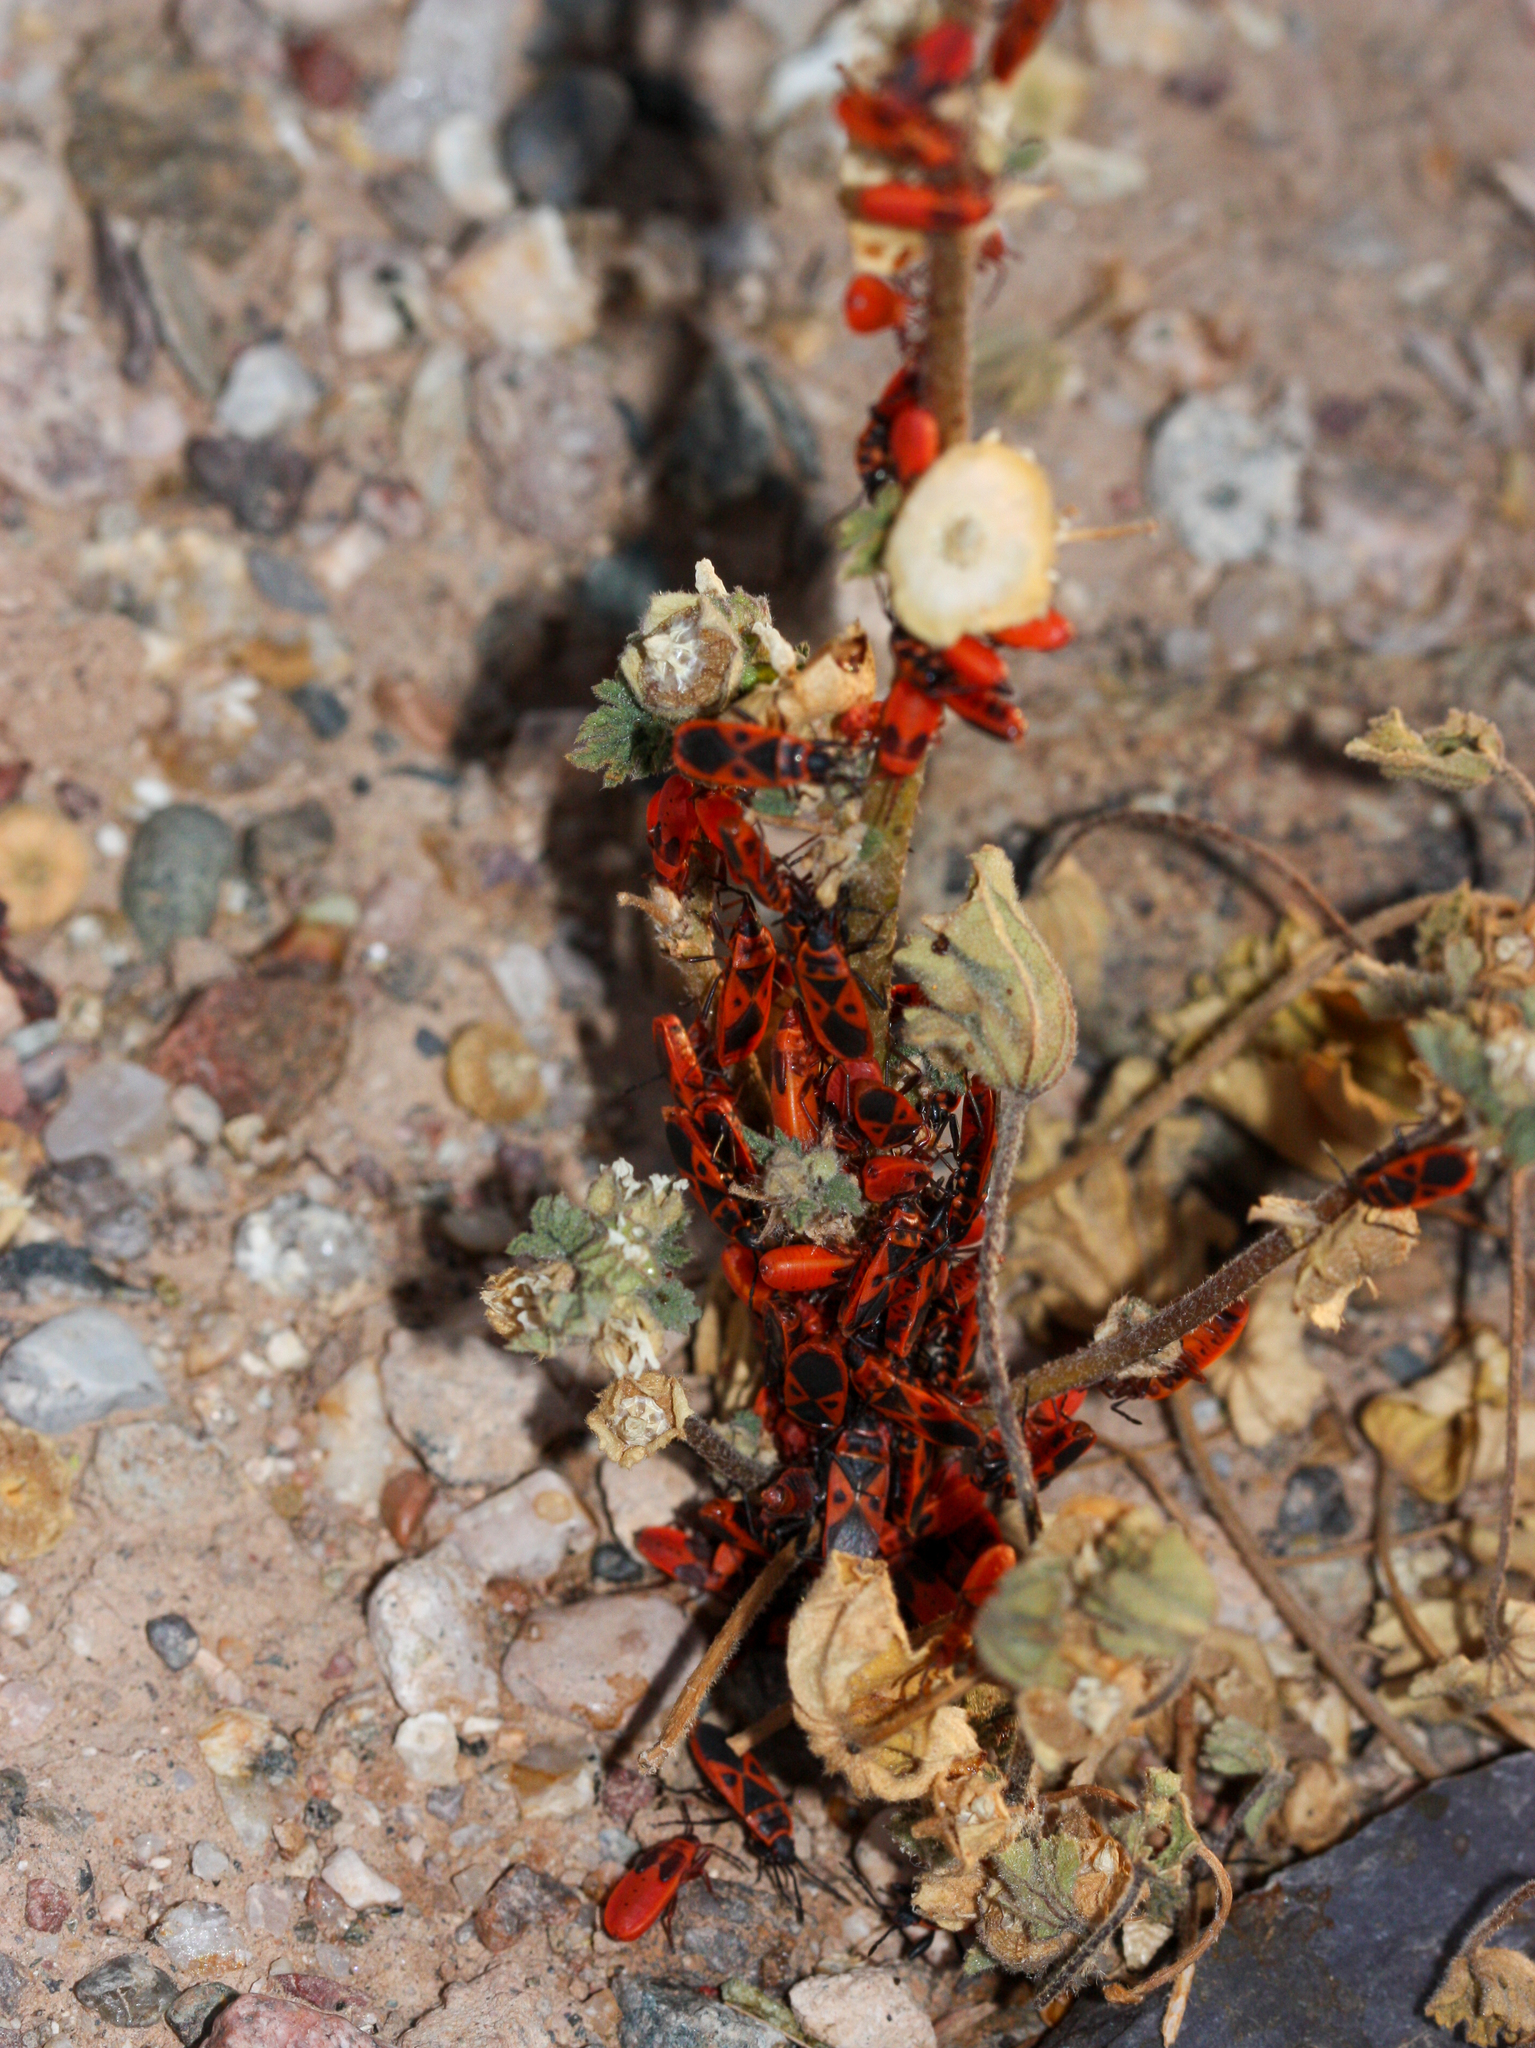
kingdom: Animalia
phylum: Arthropoda
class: Insecta
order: Hemiptera
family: Pyrrhocoridae
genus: Scantius
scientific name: Scantius aegyptius
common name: Red bug
